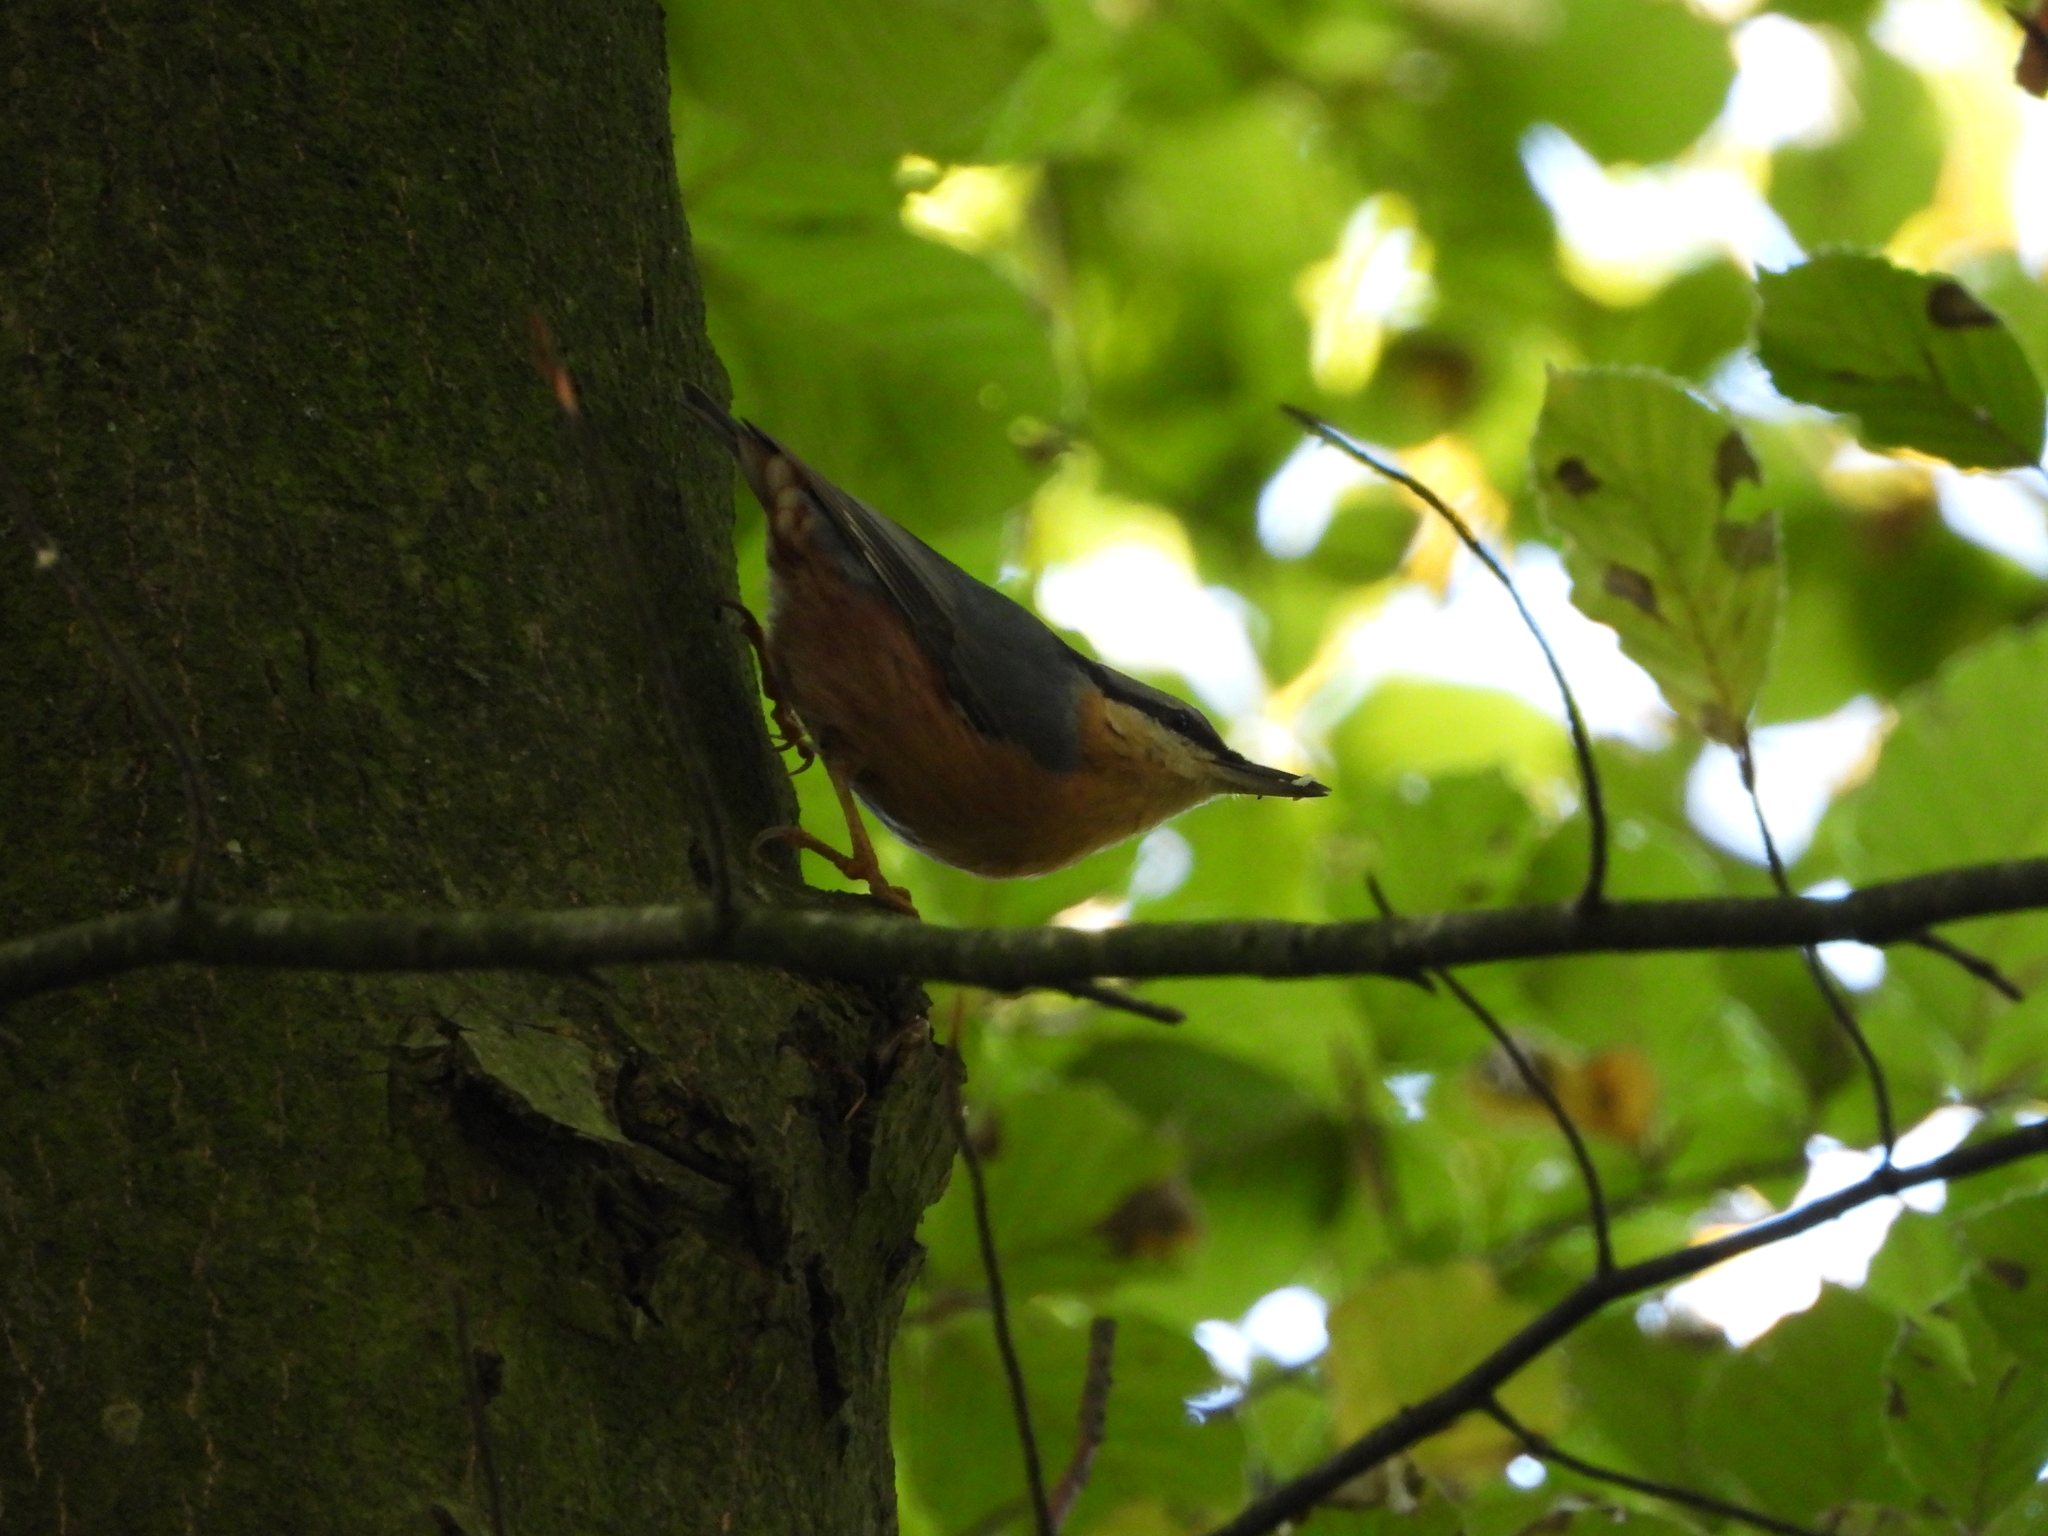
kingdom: Animalia
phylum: Chordata
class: Aves
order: Passeriformes
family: Sittidae
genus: Sitta
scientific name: Sitta europaea
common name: Eurasian nuthatch
